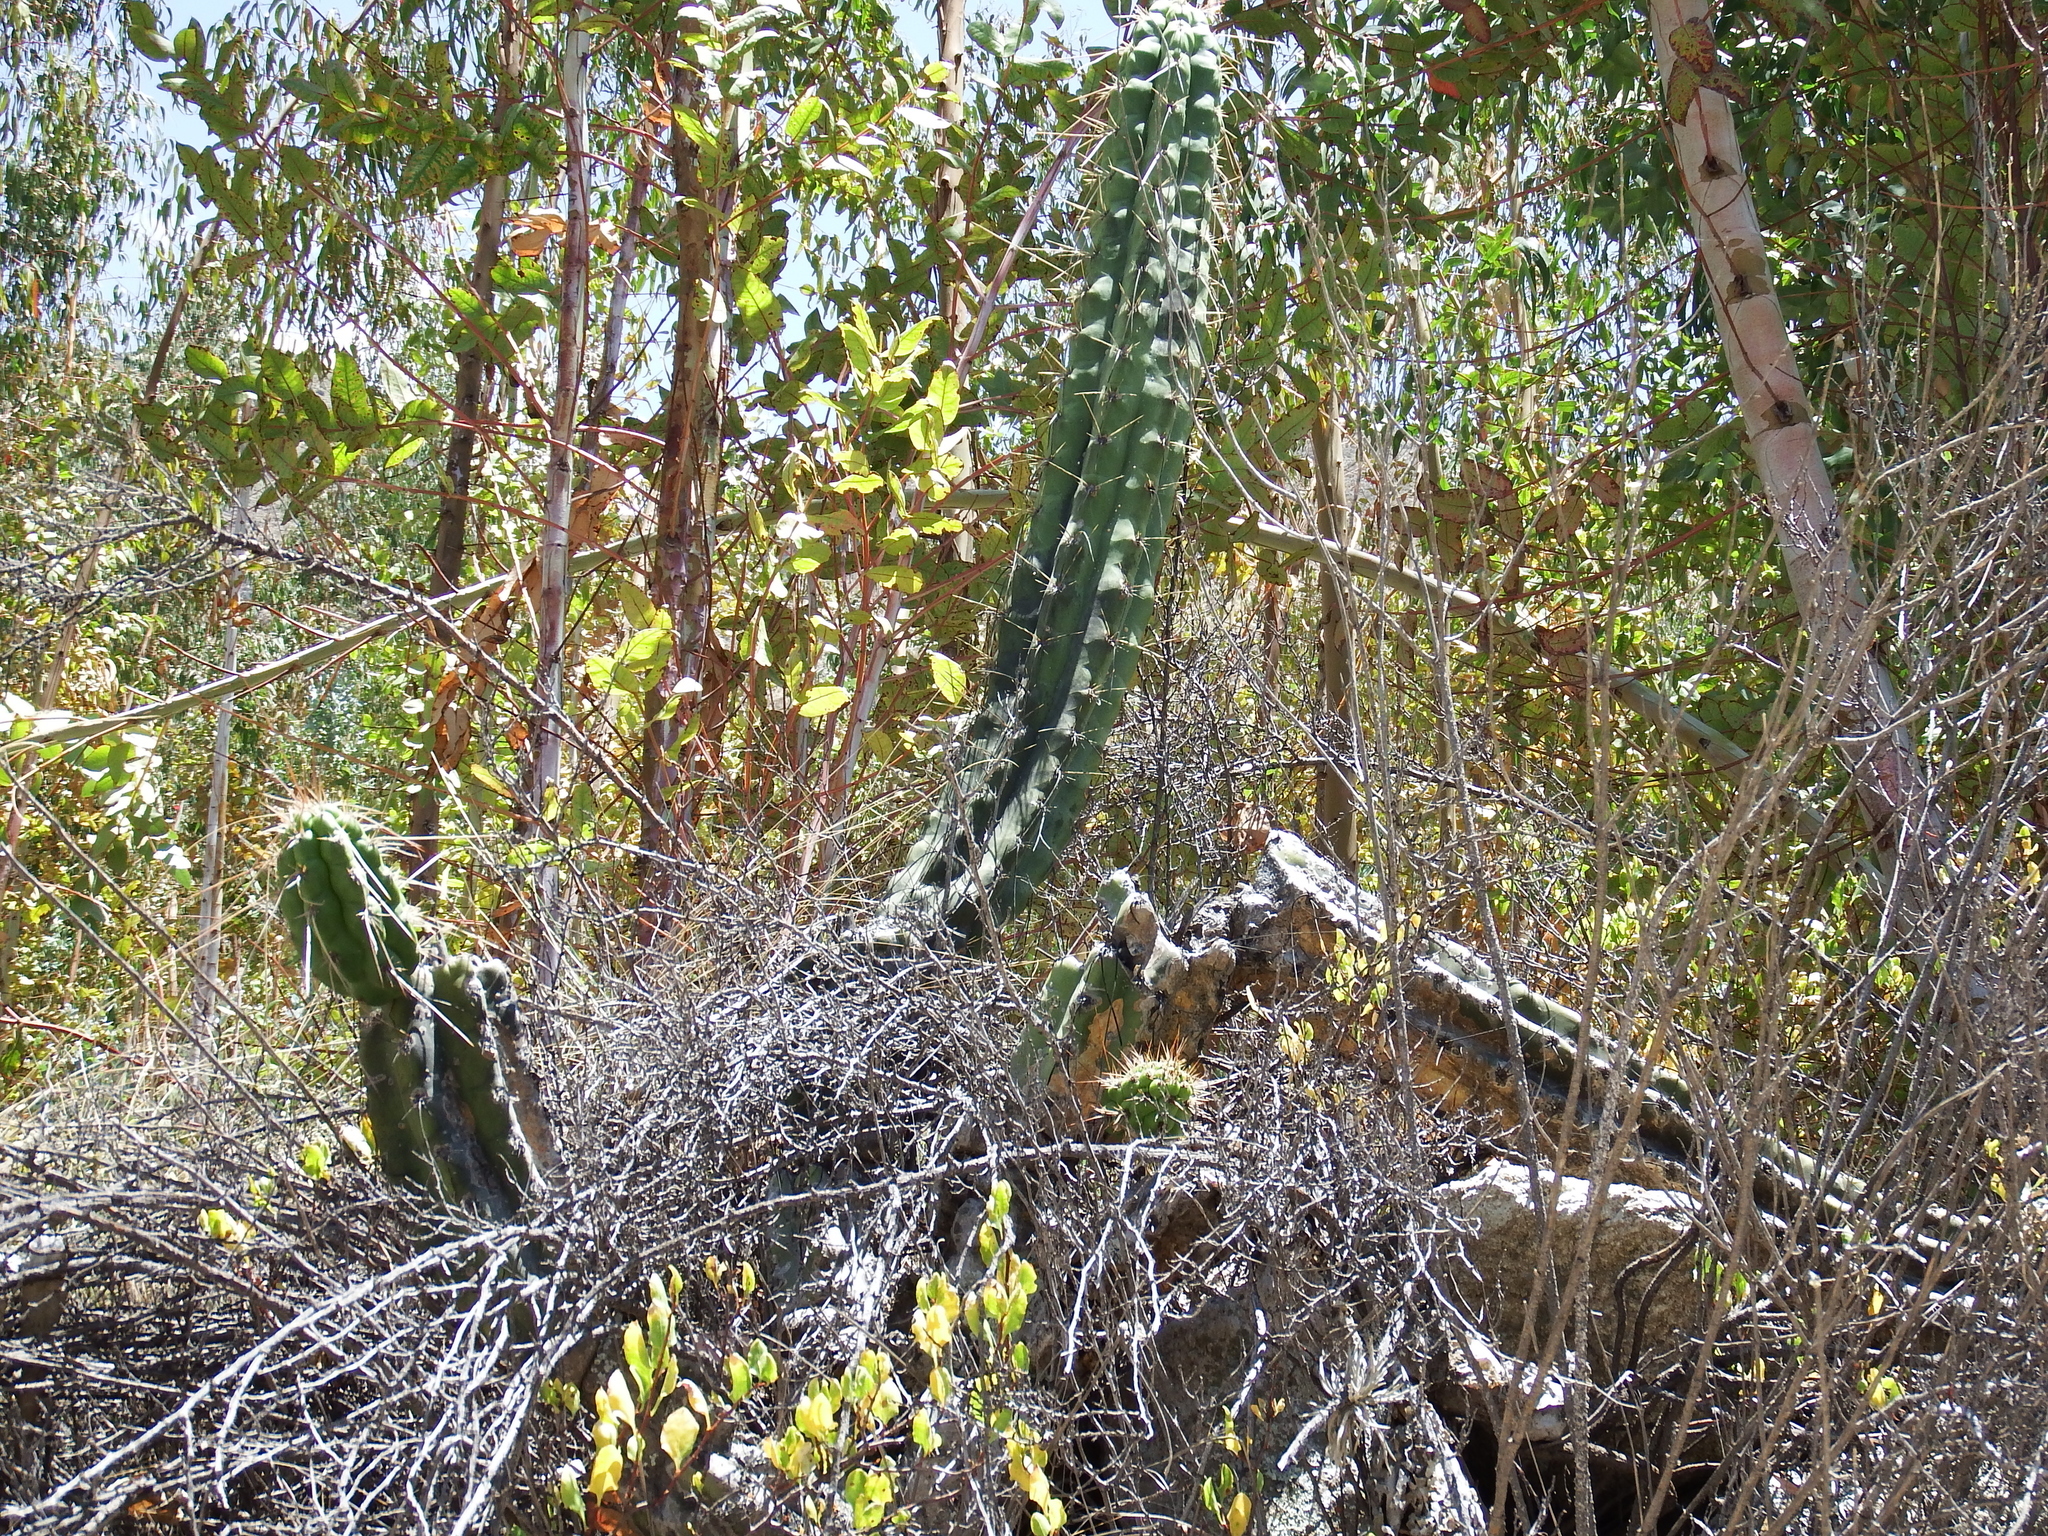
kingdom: Plantae
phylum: Tracheophyta
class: Magnoliopsida
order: Caryophyllales
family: Cactaceae
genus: Corryocactus
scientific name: Corryocactus brevistylus
